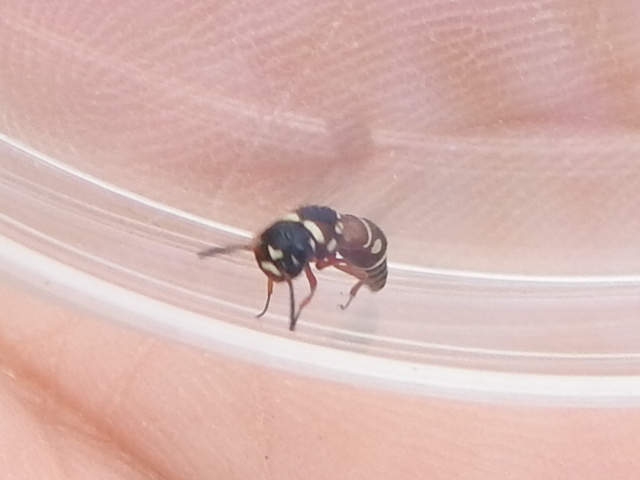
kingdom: Animalia
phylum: Arthropoda
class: Insecta
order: Hymenoptera
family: Eumenidae
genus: Leptochilus
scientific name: Leptochilus bellulus
